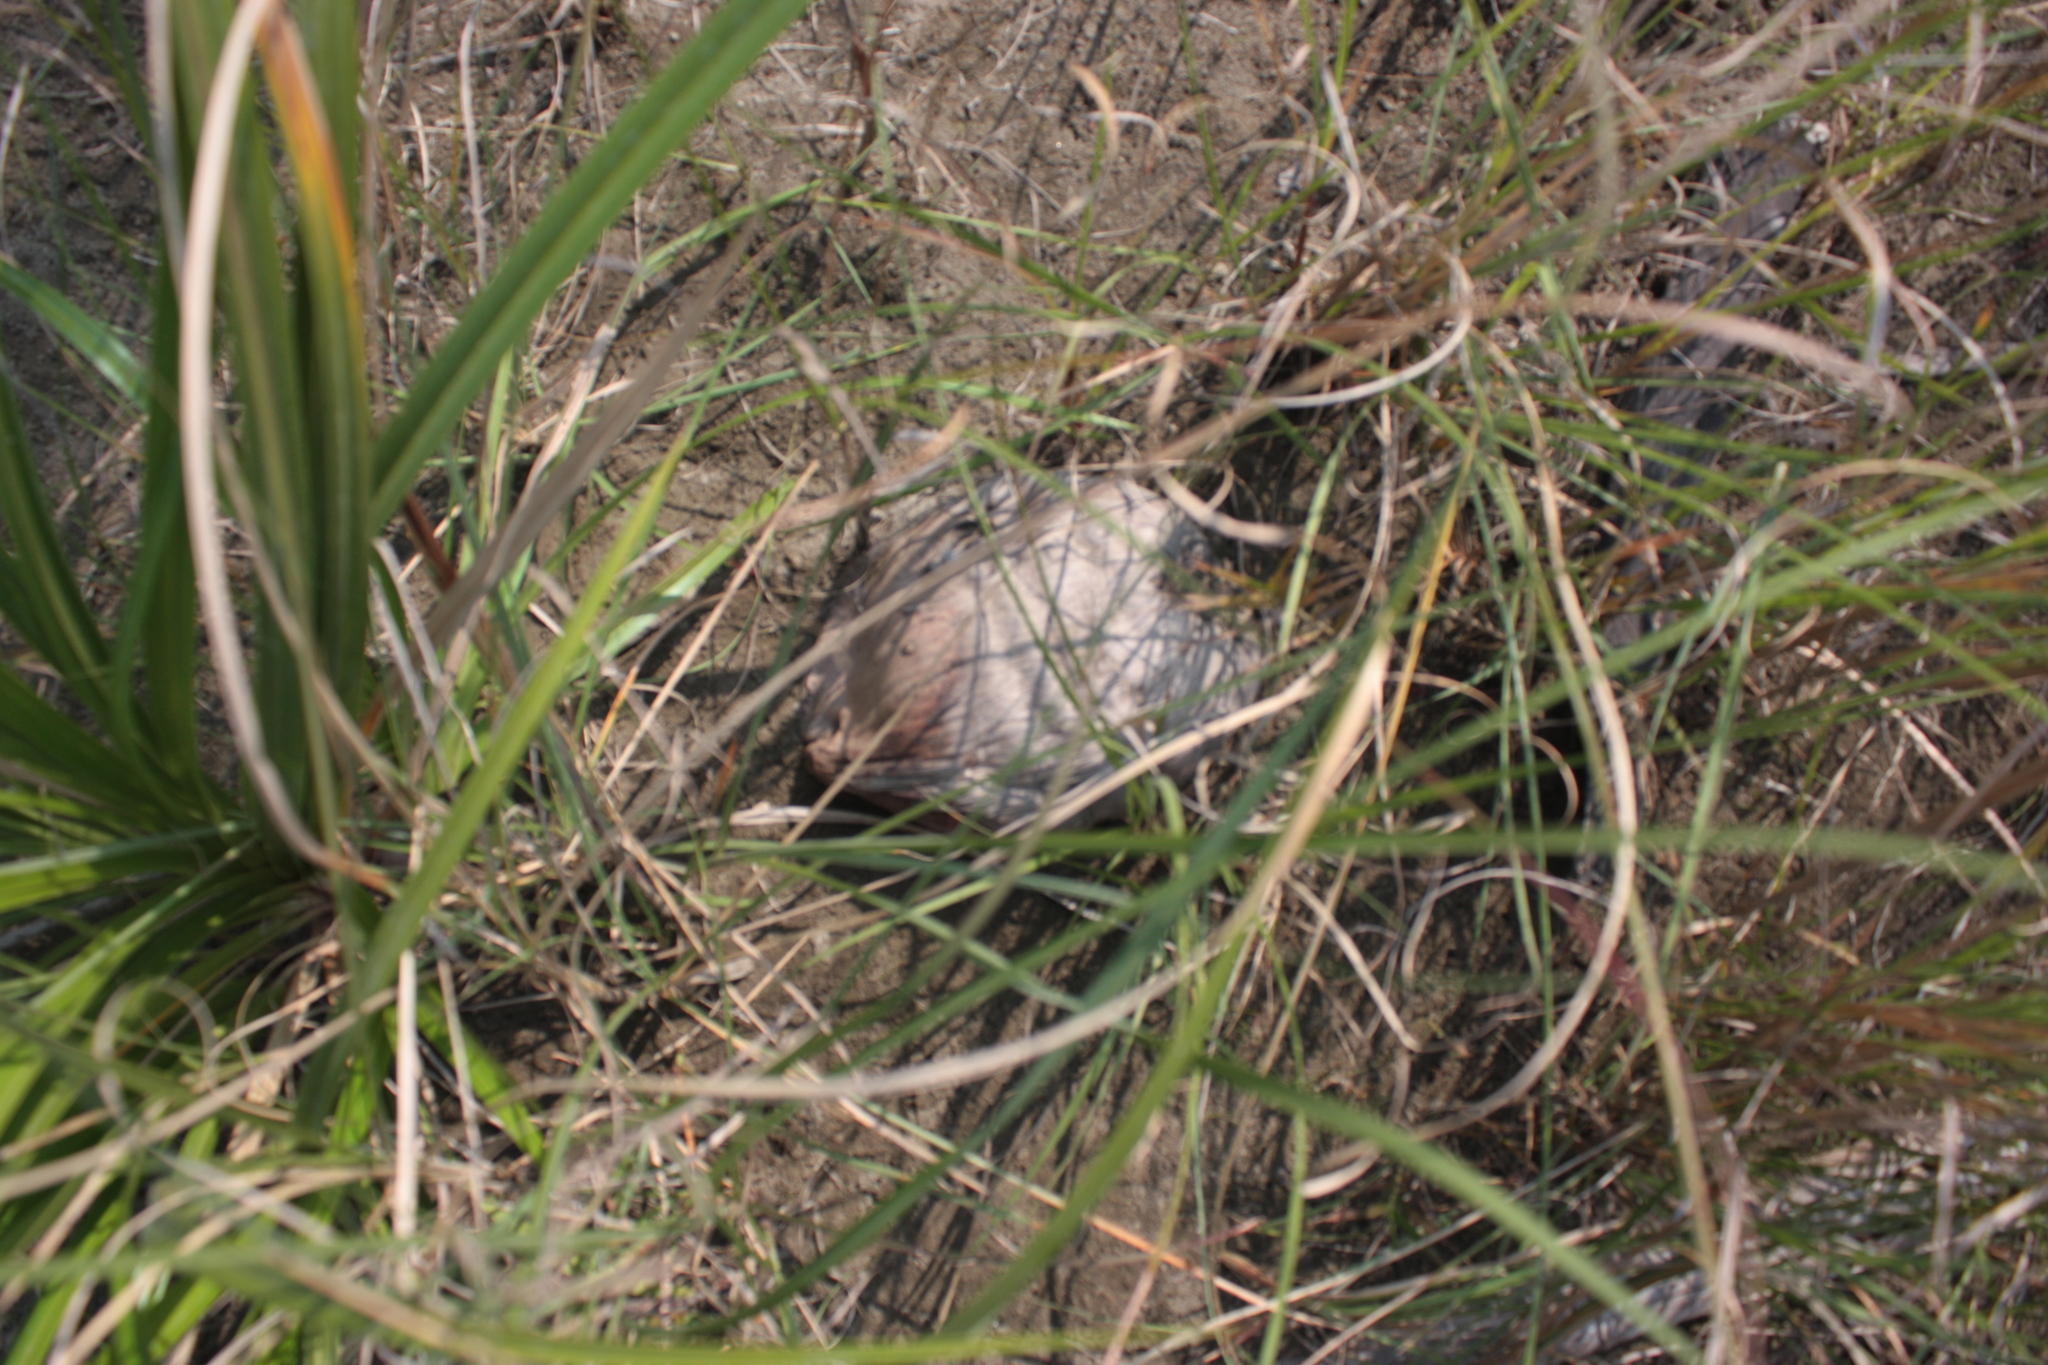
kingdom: Plantae
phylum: Tracheophyta
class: Liliopsida
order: Arecales
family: Arecaceae
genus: Cocos
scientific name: Cocos nucifera
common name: Coconut palm
